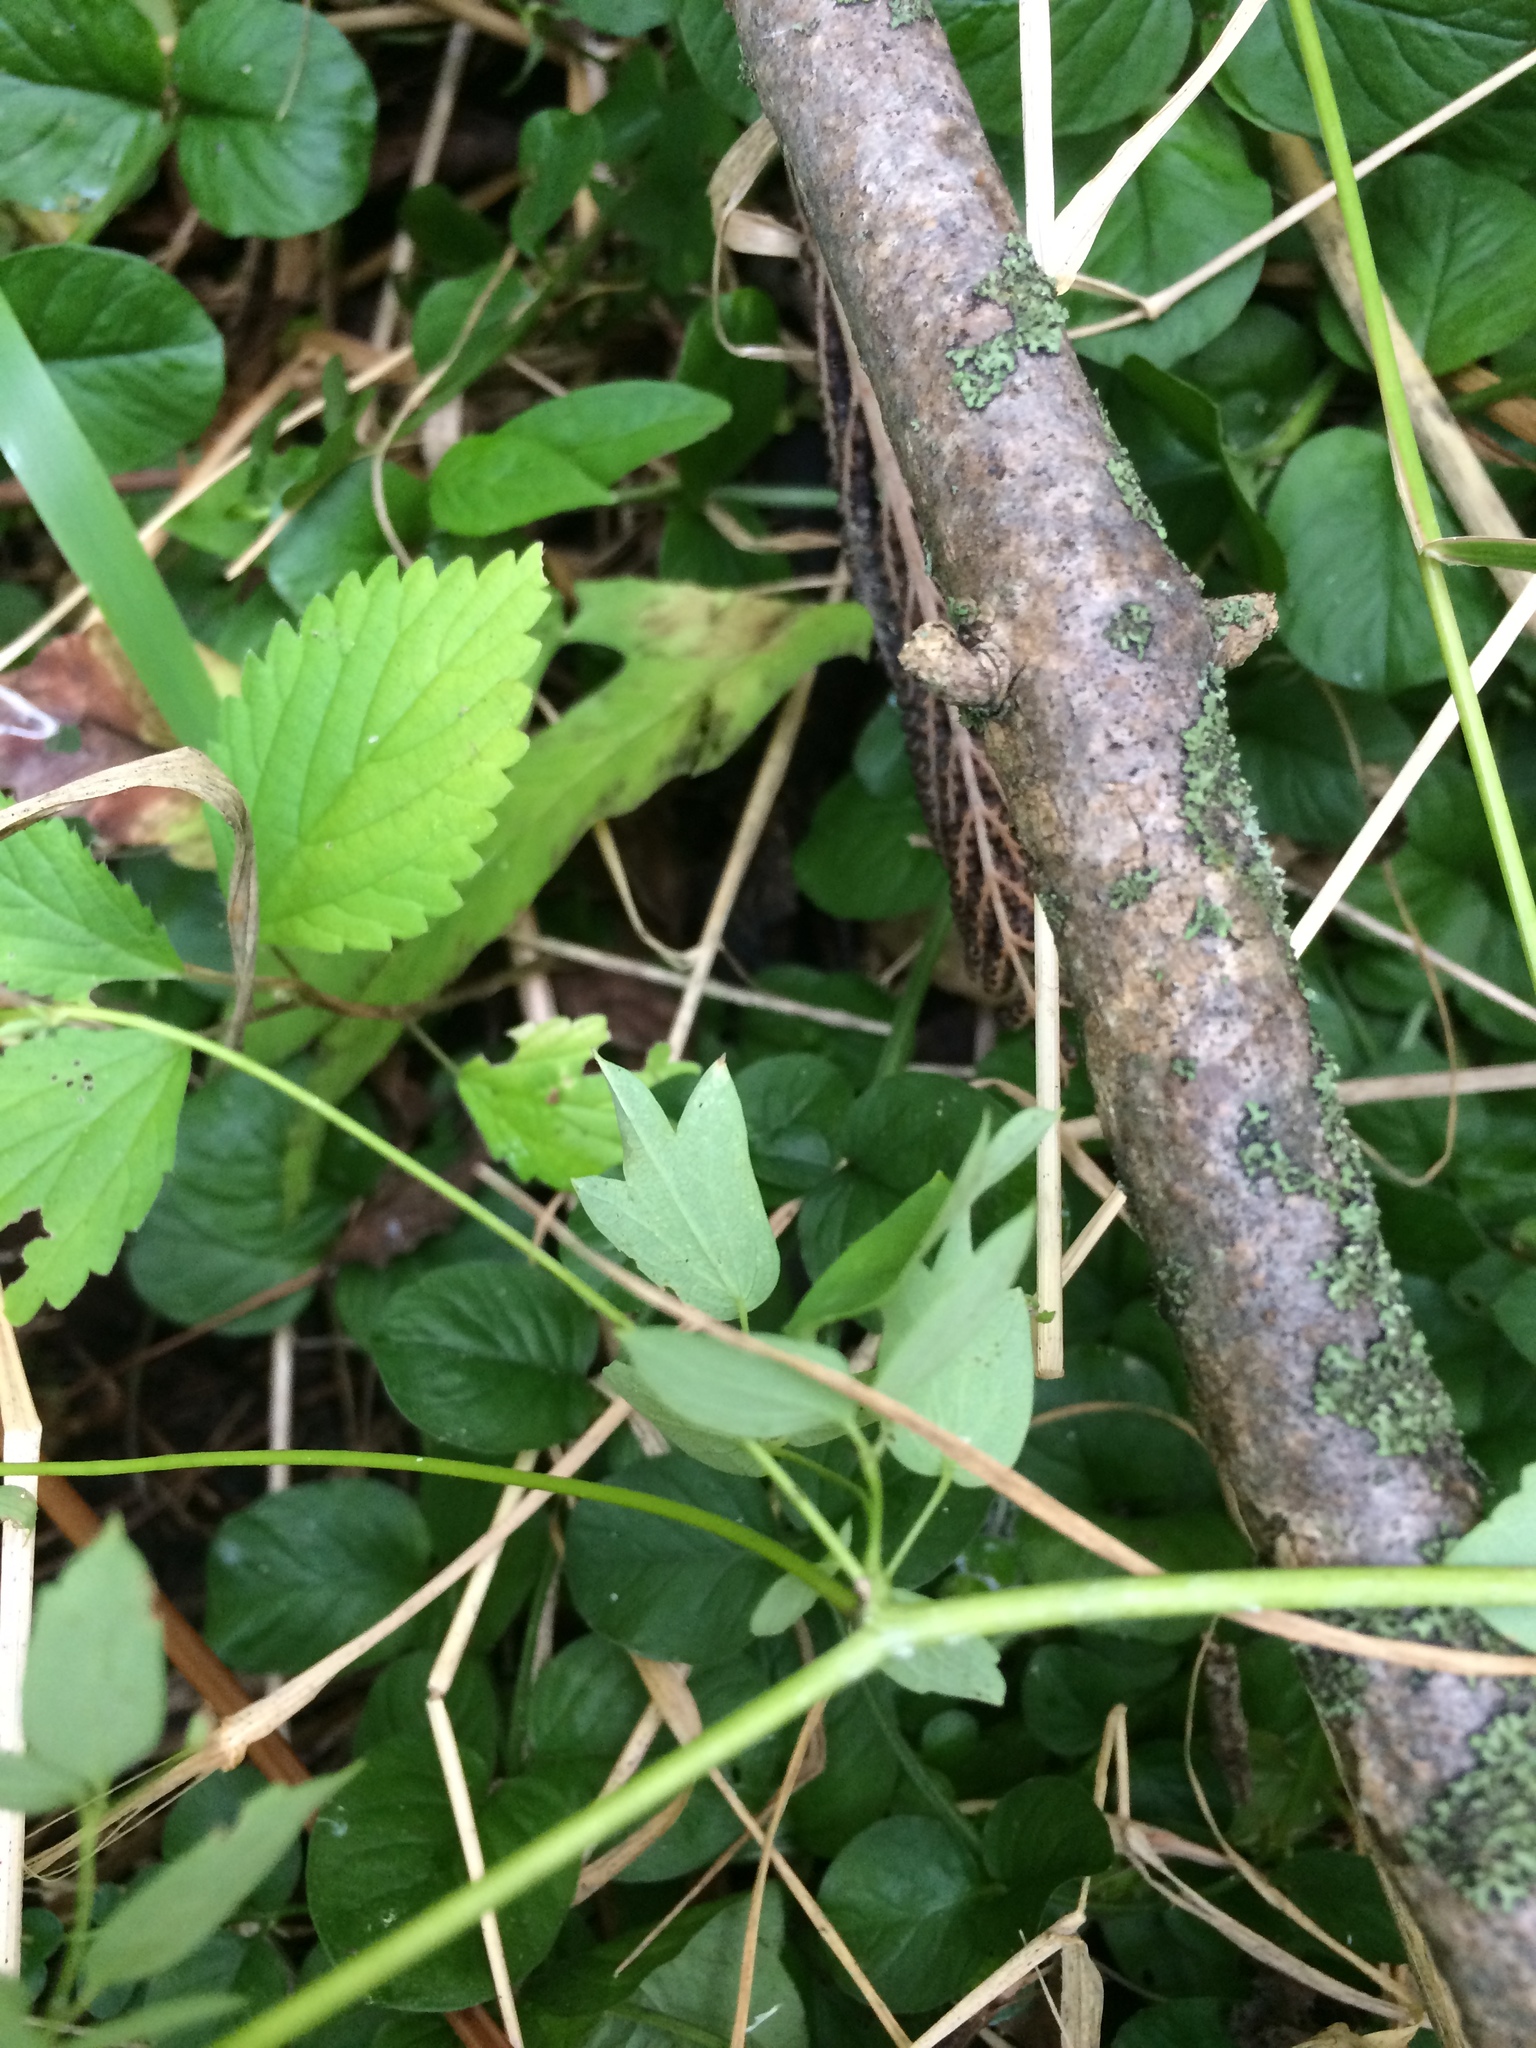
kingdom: Plantae
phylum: Tracheophyta
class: Magnoliopsida
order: Ranunculales
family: Ranunculaceae
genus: Thalictrum
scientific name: Thalictrum pubescens
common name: King-of-the-meadow
